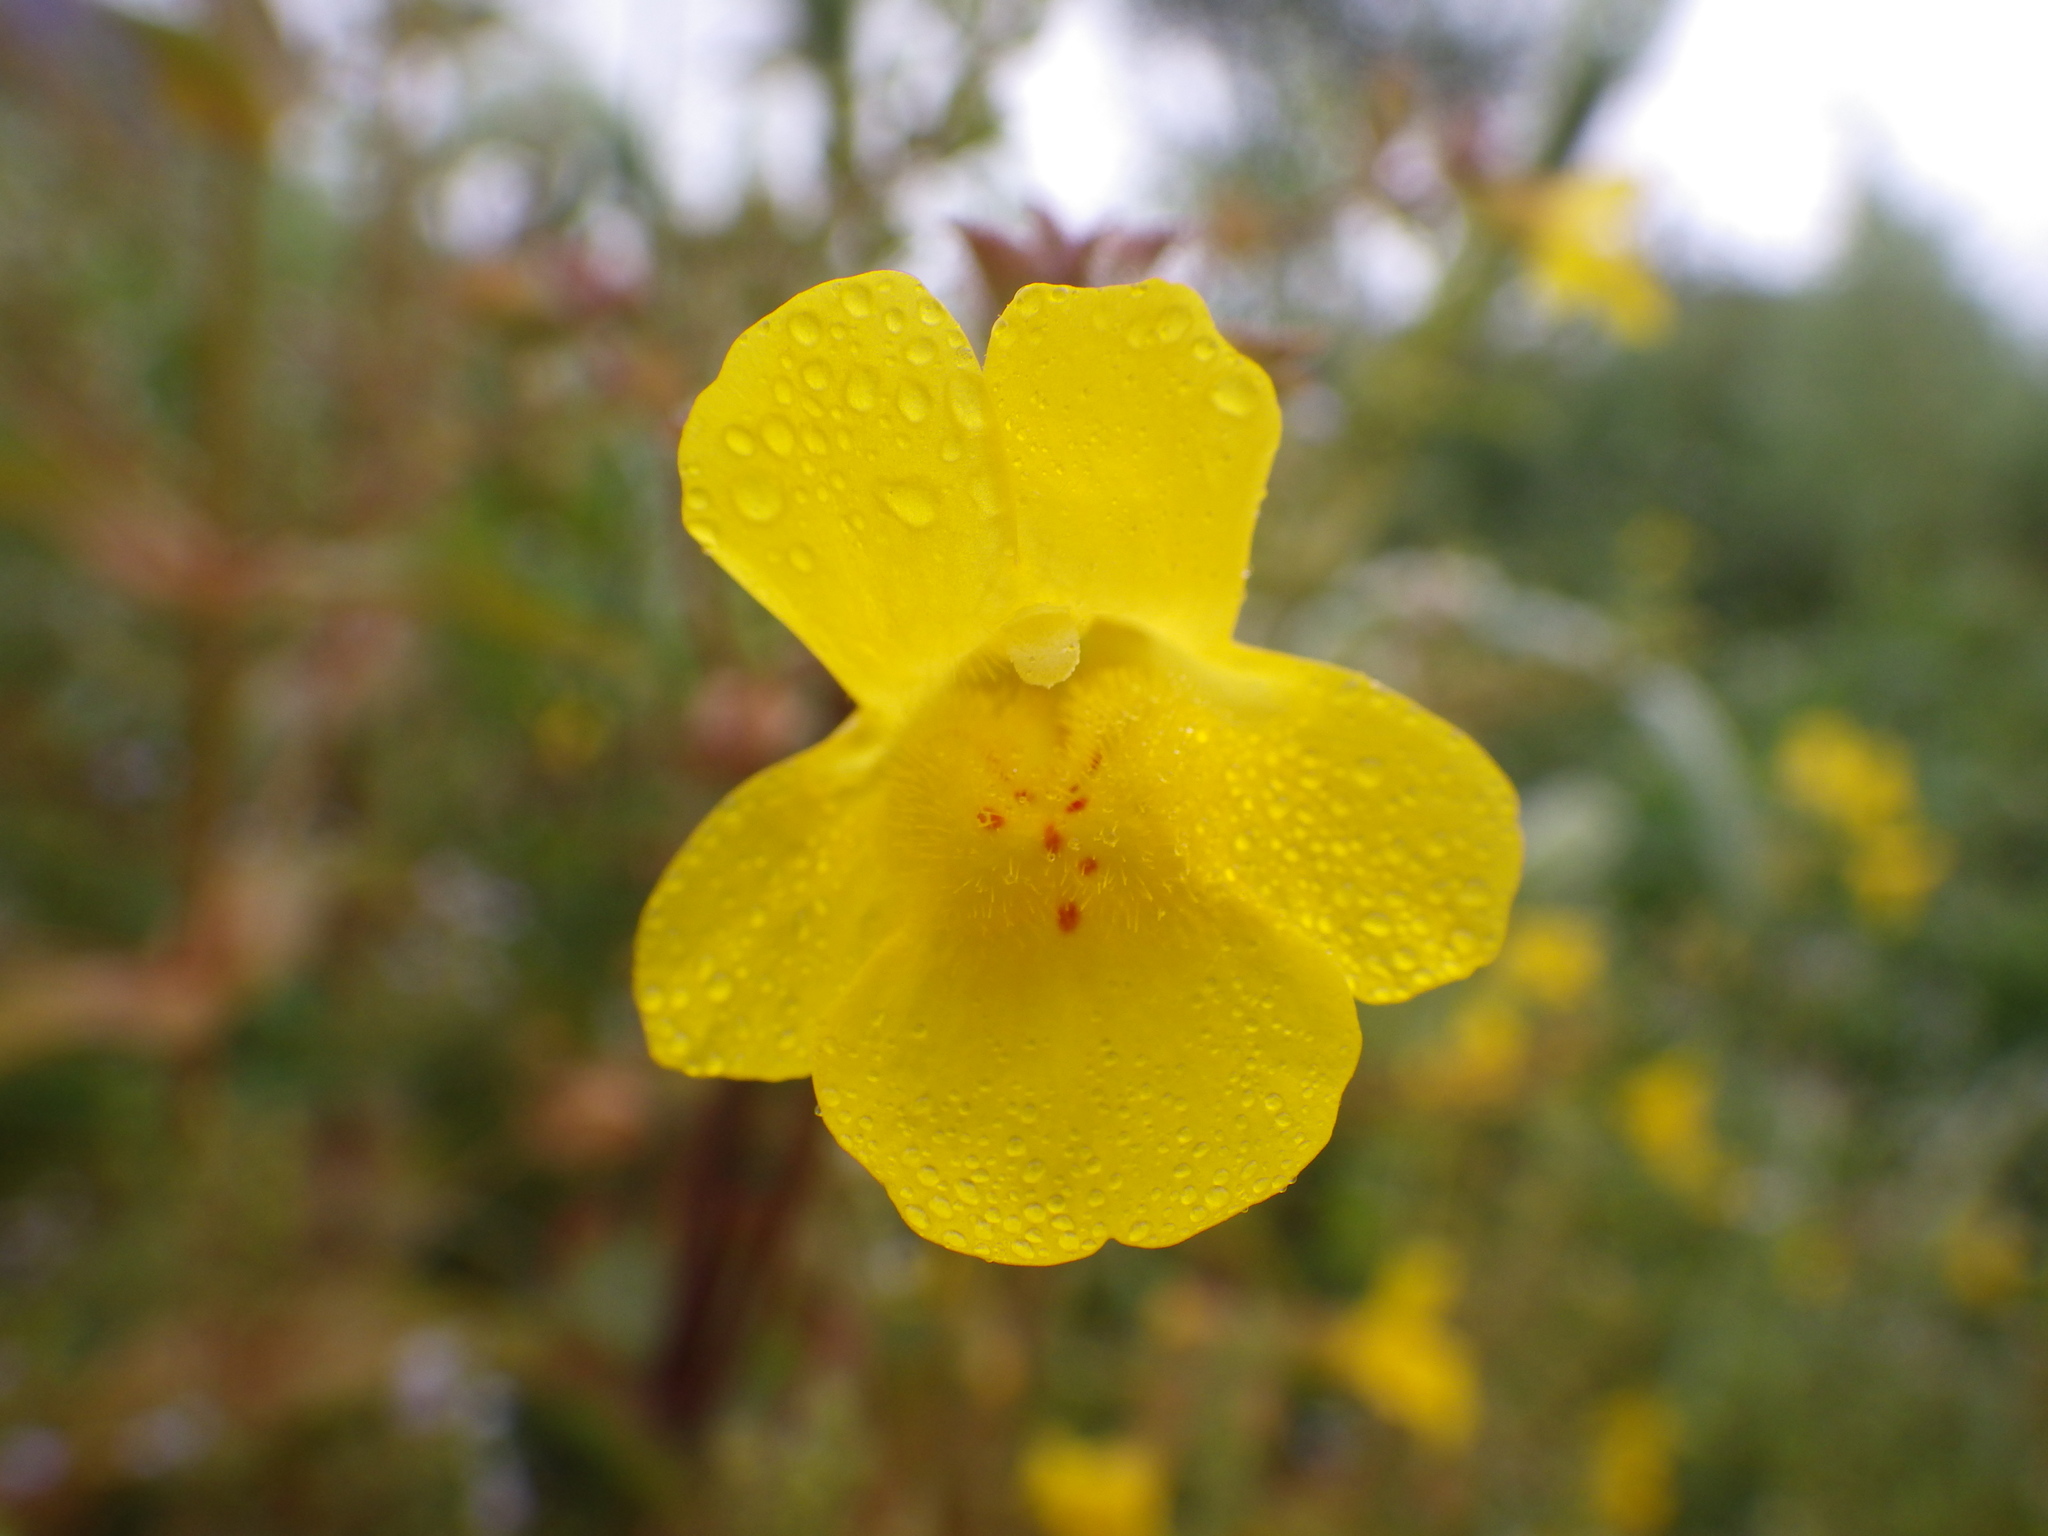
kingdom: Plantae
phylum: Tracheophyta
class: Magnoliopsida
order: Lamiales
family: Phrymaceae
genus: Erythranthe
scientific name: Erythranthe guttata
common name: Monkeyflower
